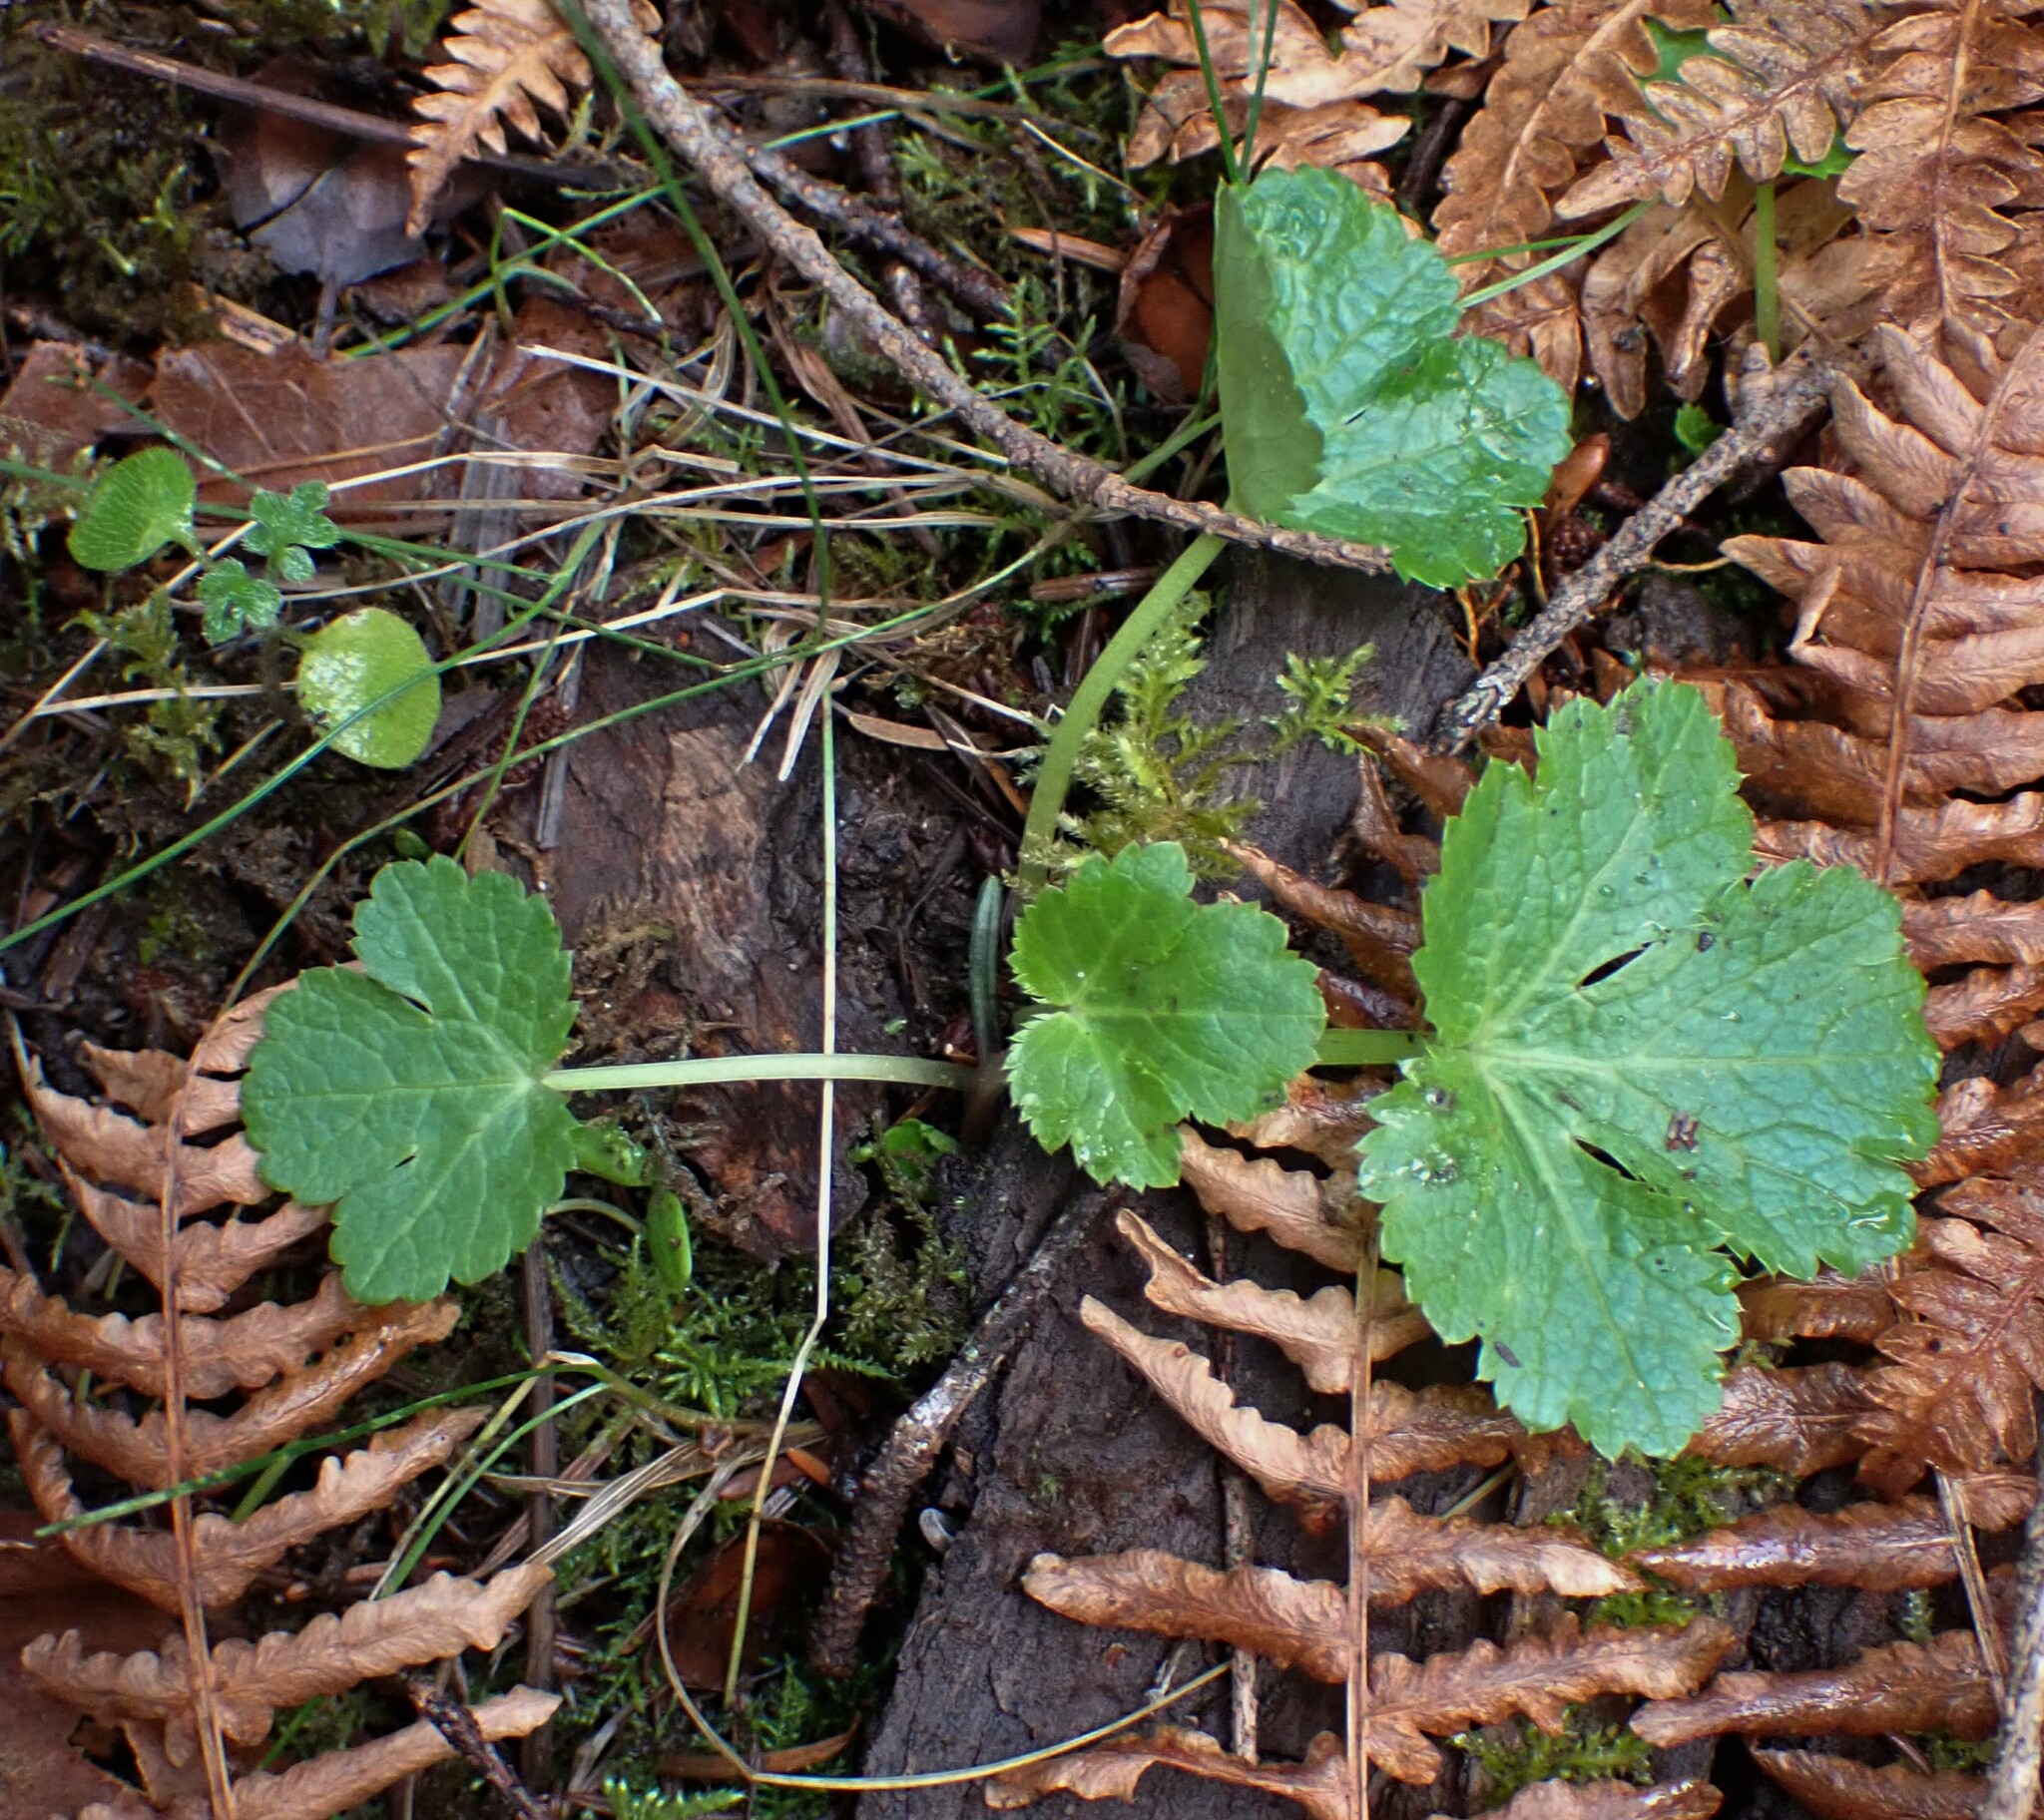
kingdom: Plantae
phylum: Tracheophyta
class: Magnoliopsida
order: Apiales
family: Apiaceae
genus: Sanicula
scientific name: Sanicula crassicaulis
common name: Western snakeroot
